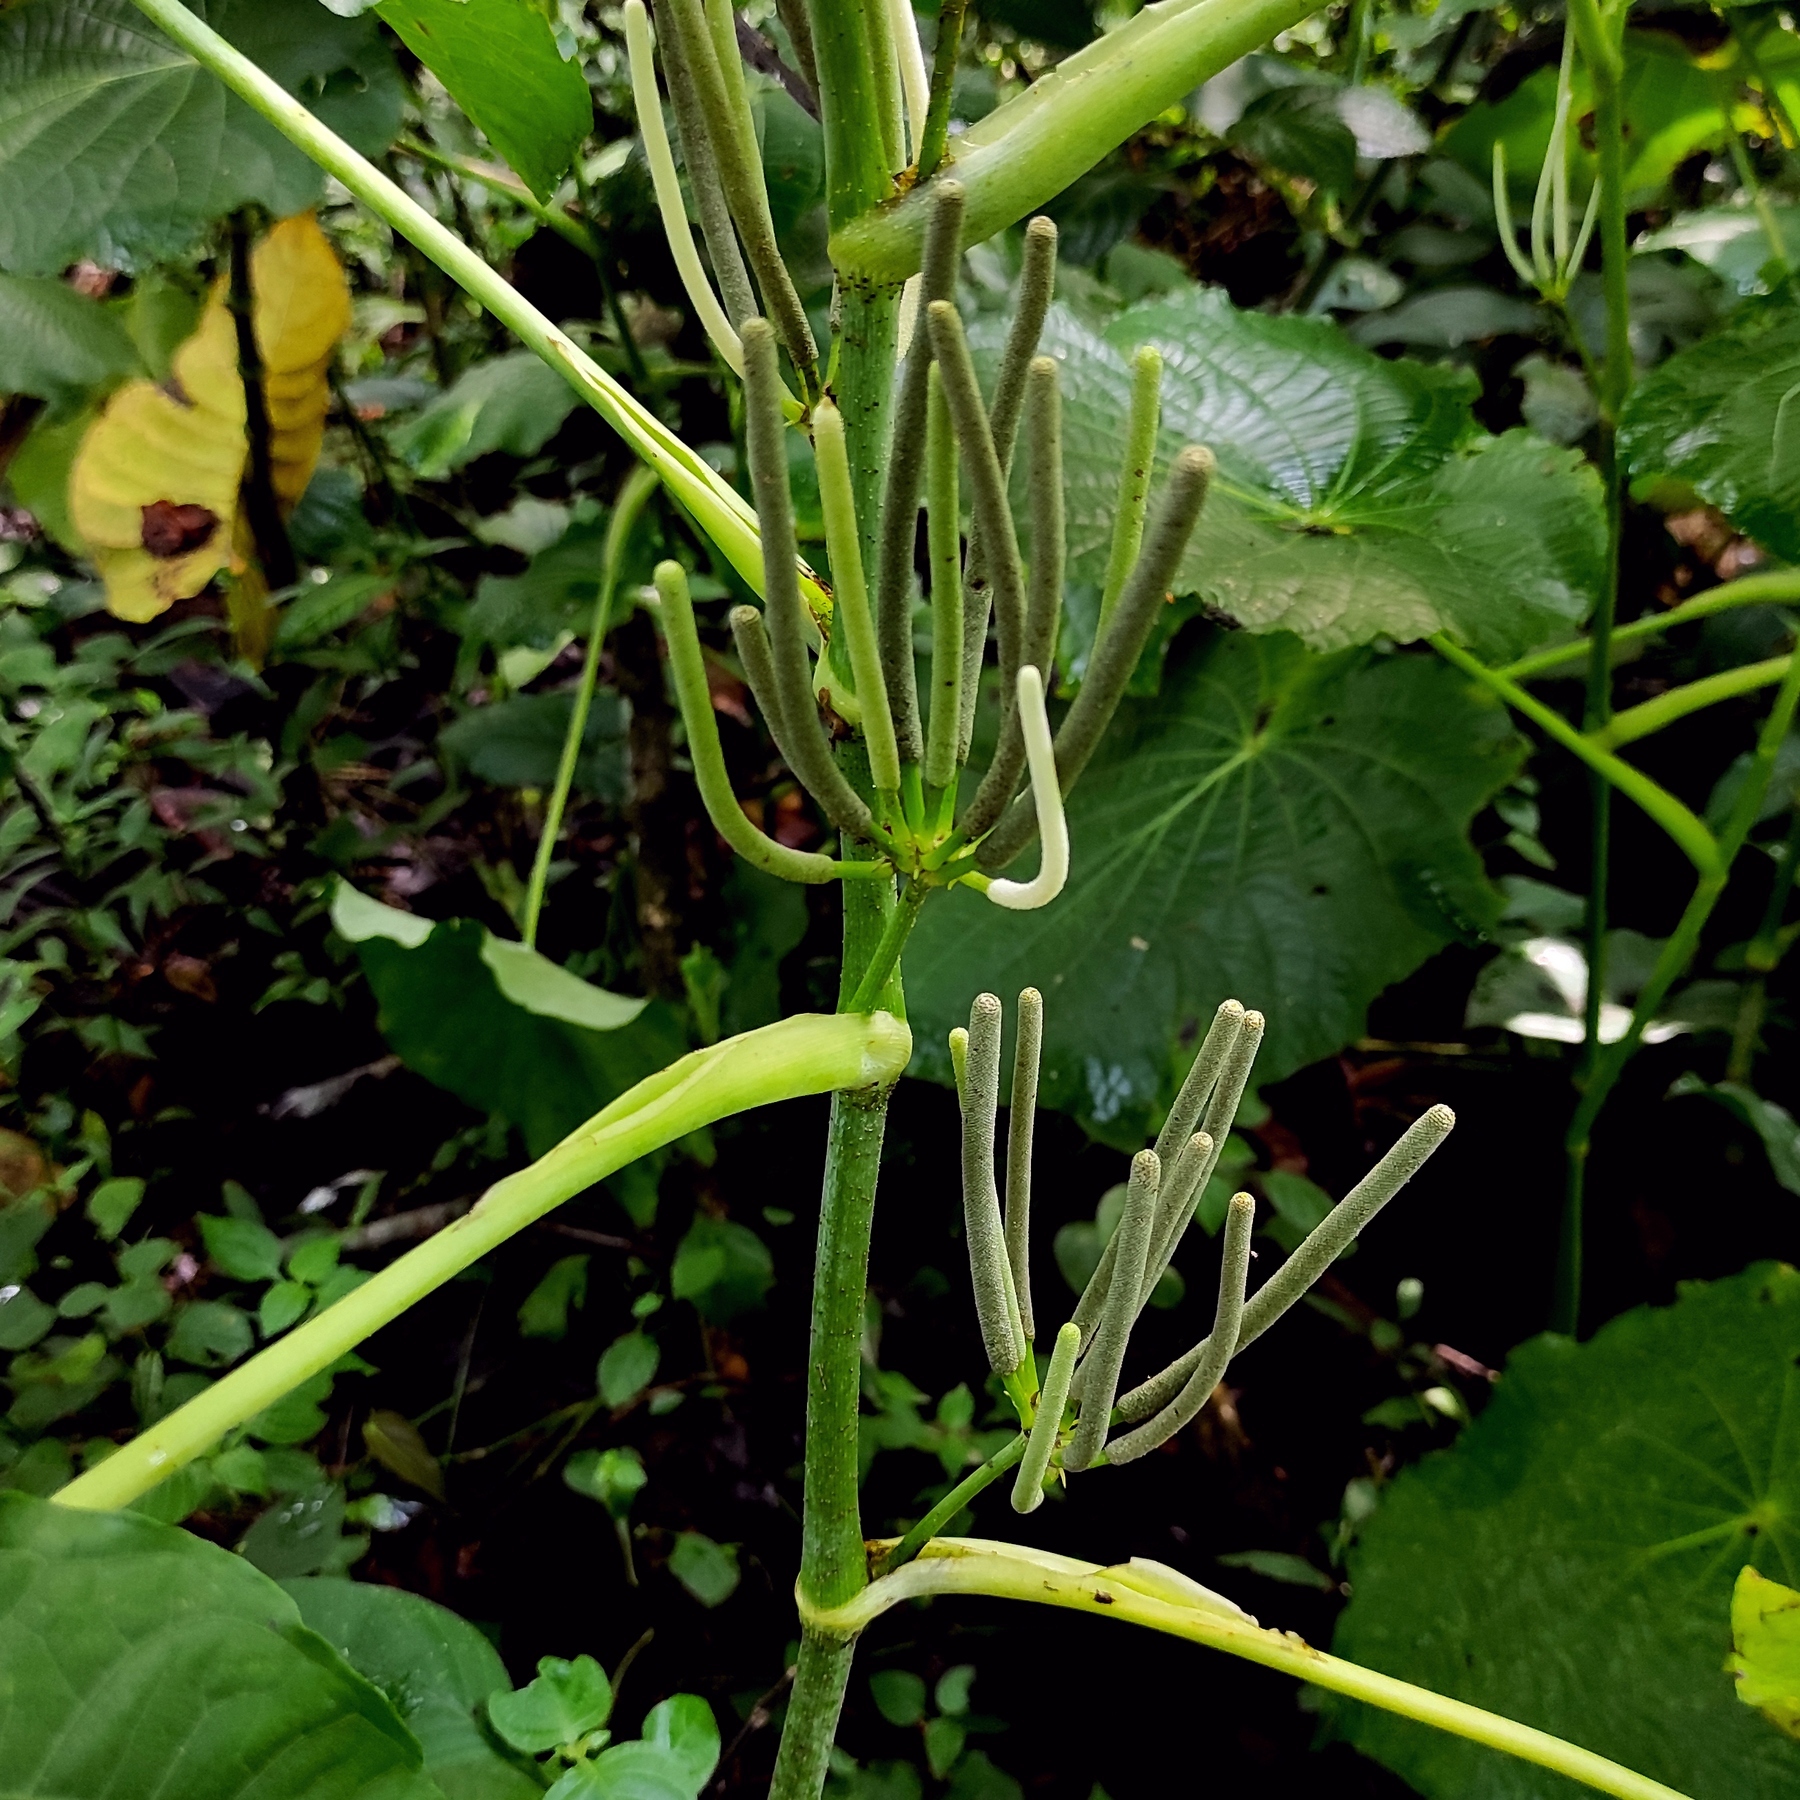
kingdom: Plantae
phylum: Tracheophyta
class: Magnoliopsida
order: Piperales
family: Piperaceae
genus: Piper
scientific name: Piper peltatum
